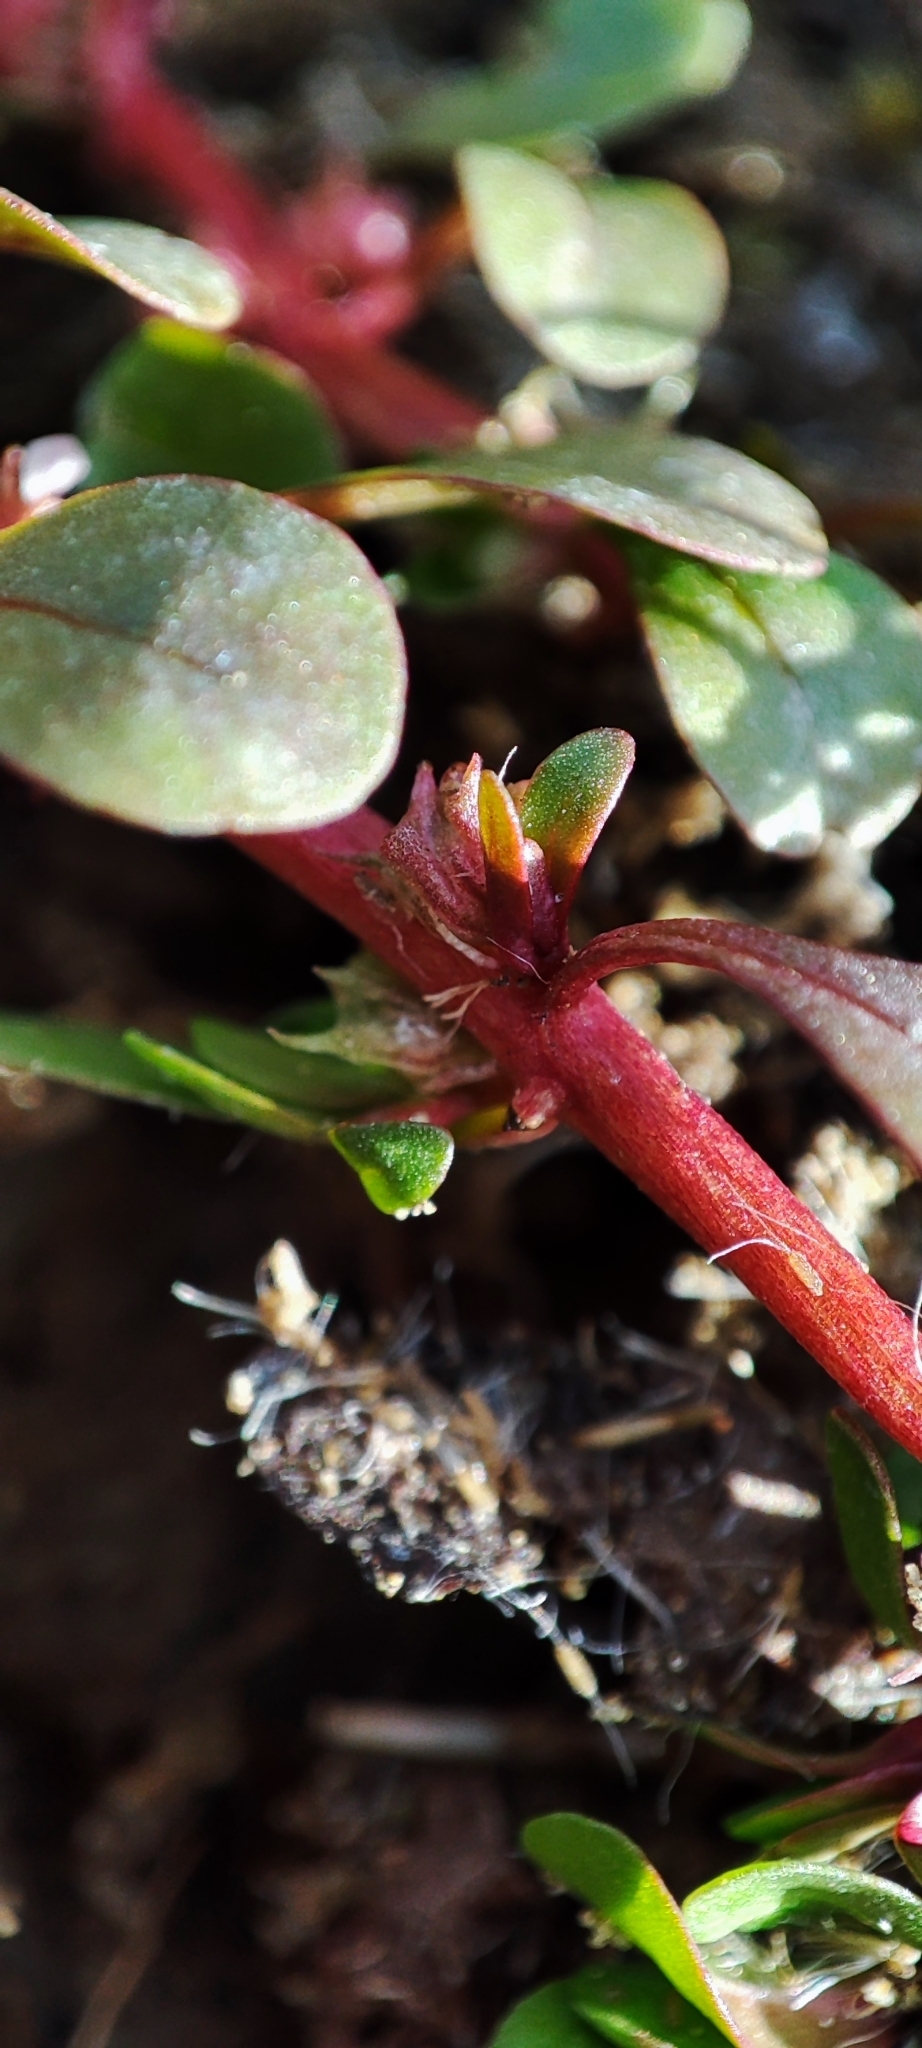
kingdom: Plantae
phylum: Tracheophyta
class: Magnoliopsida
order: Myrtales
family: Lythraceae
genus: Lythrum
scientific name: Lythrum portula
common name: Water purslane
